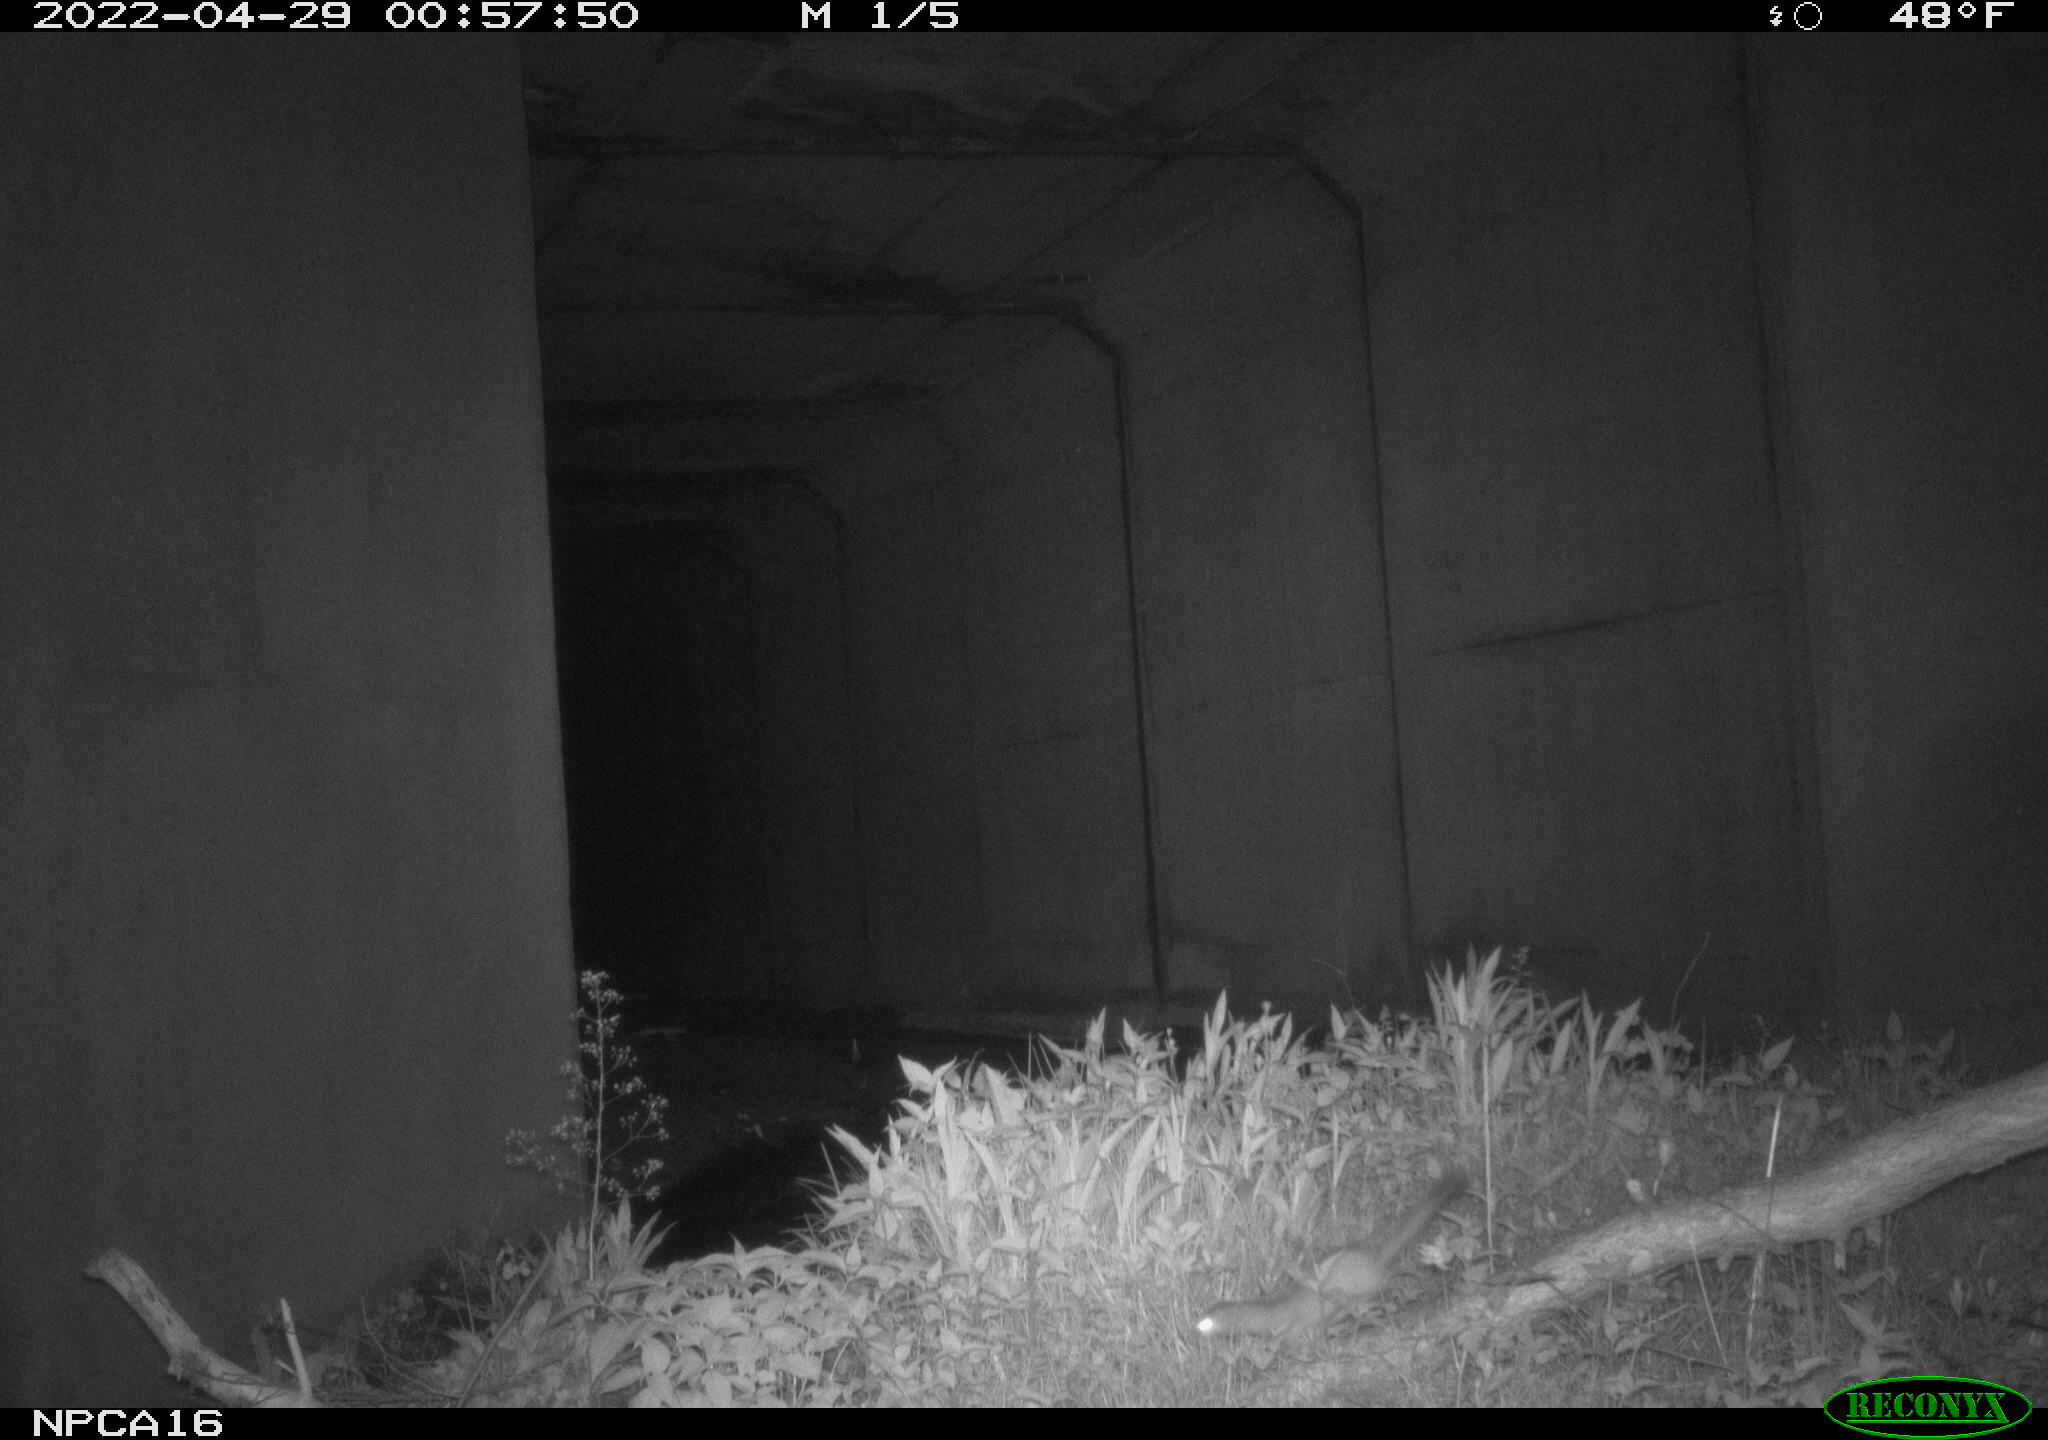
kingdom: Animalia
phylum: Chordata
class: Mammalia
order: Carnivora
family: Mustelidae
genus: Mustela
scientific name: Mustela
